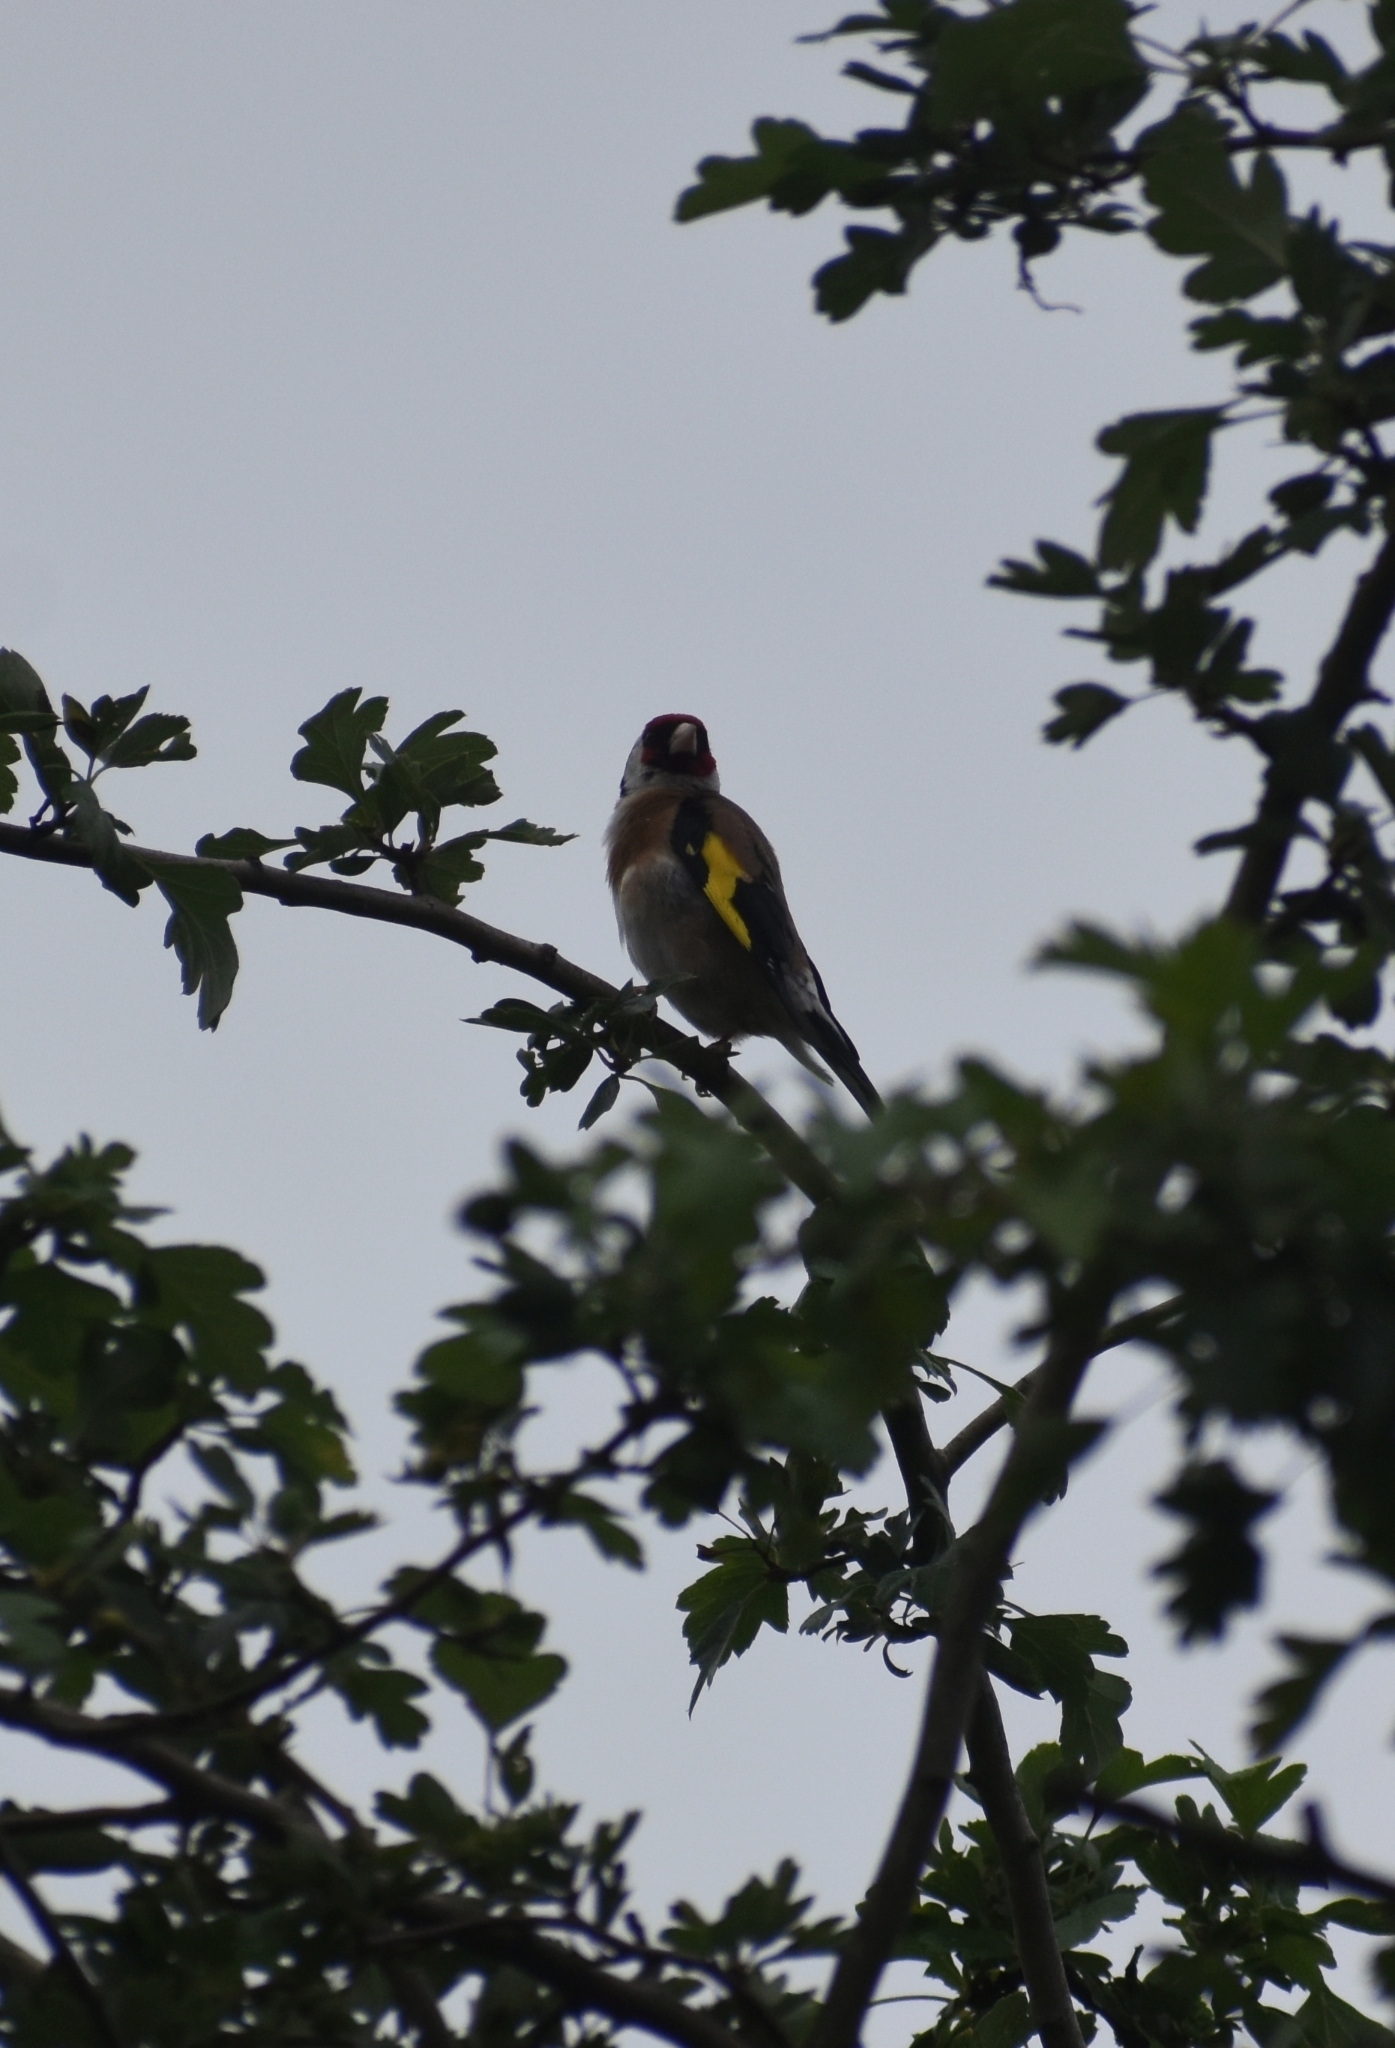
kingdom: Animalia
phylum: Chordata
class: Aves
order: Passeriformes
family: Fringillidae
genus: Carduelis
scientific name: Carduelis carduelis
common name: European goldfinch
